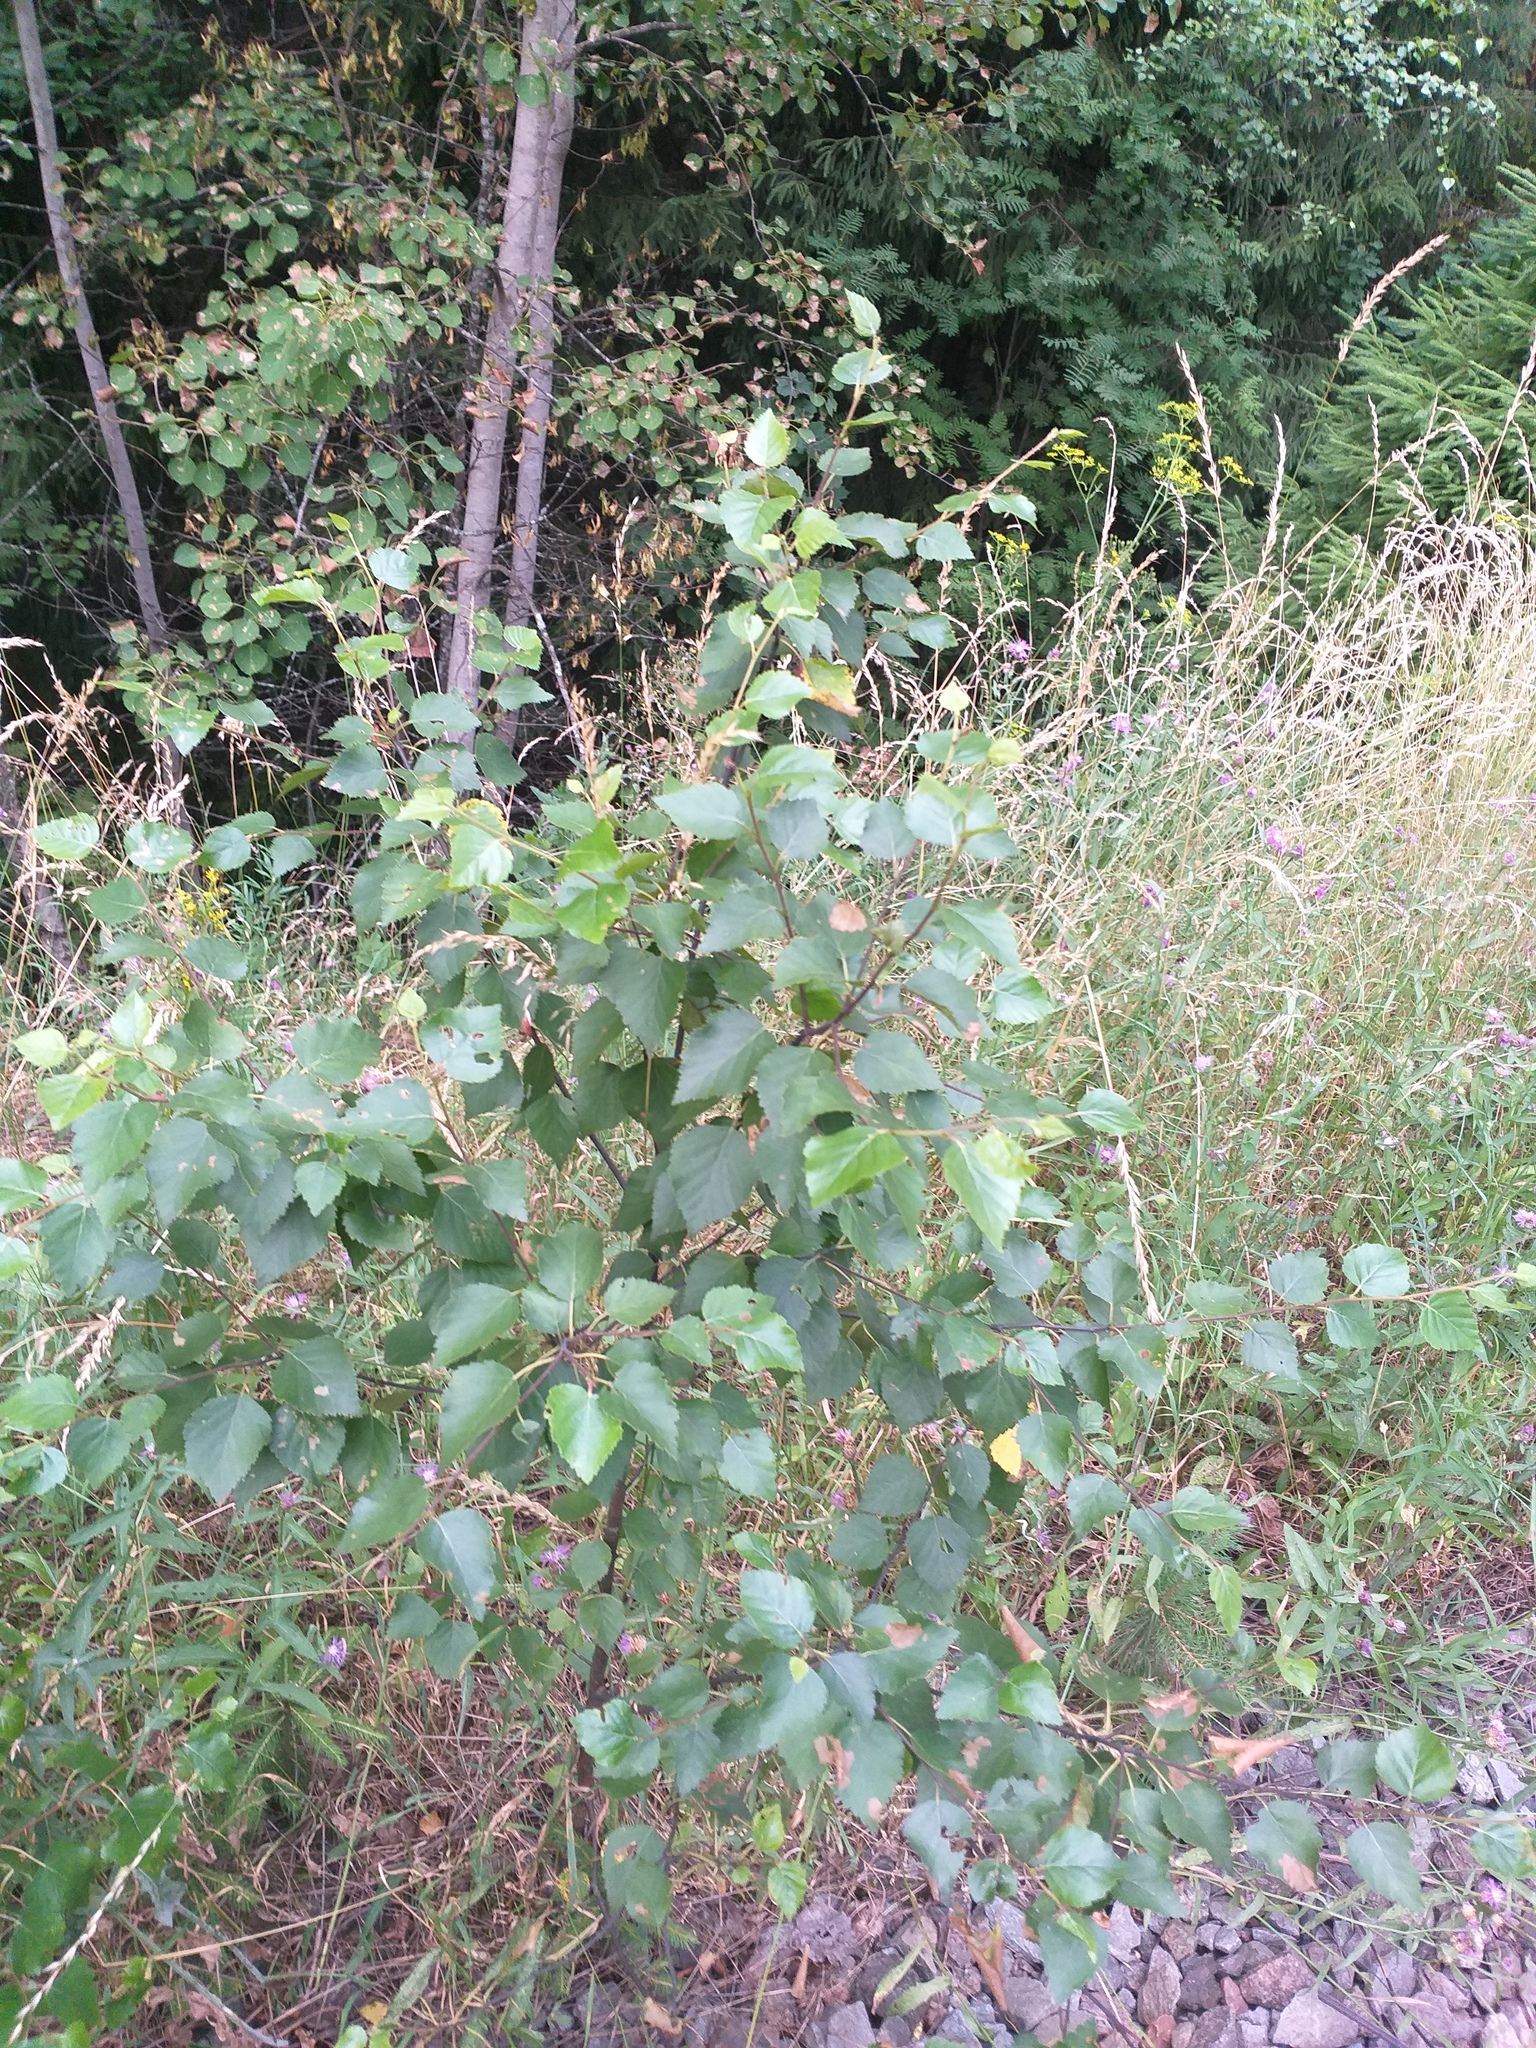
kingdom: Plantae
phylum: Tracheophyta
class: Magnoliopsida
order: Fagales
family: Betulaceae
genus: Betula
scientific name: Betula pubescens
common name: Downy birch
